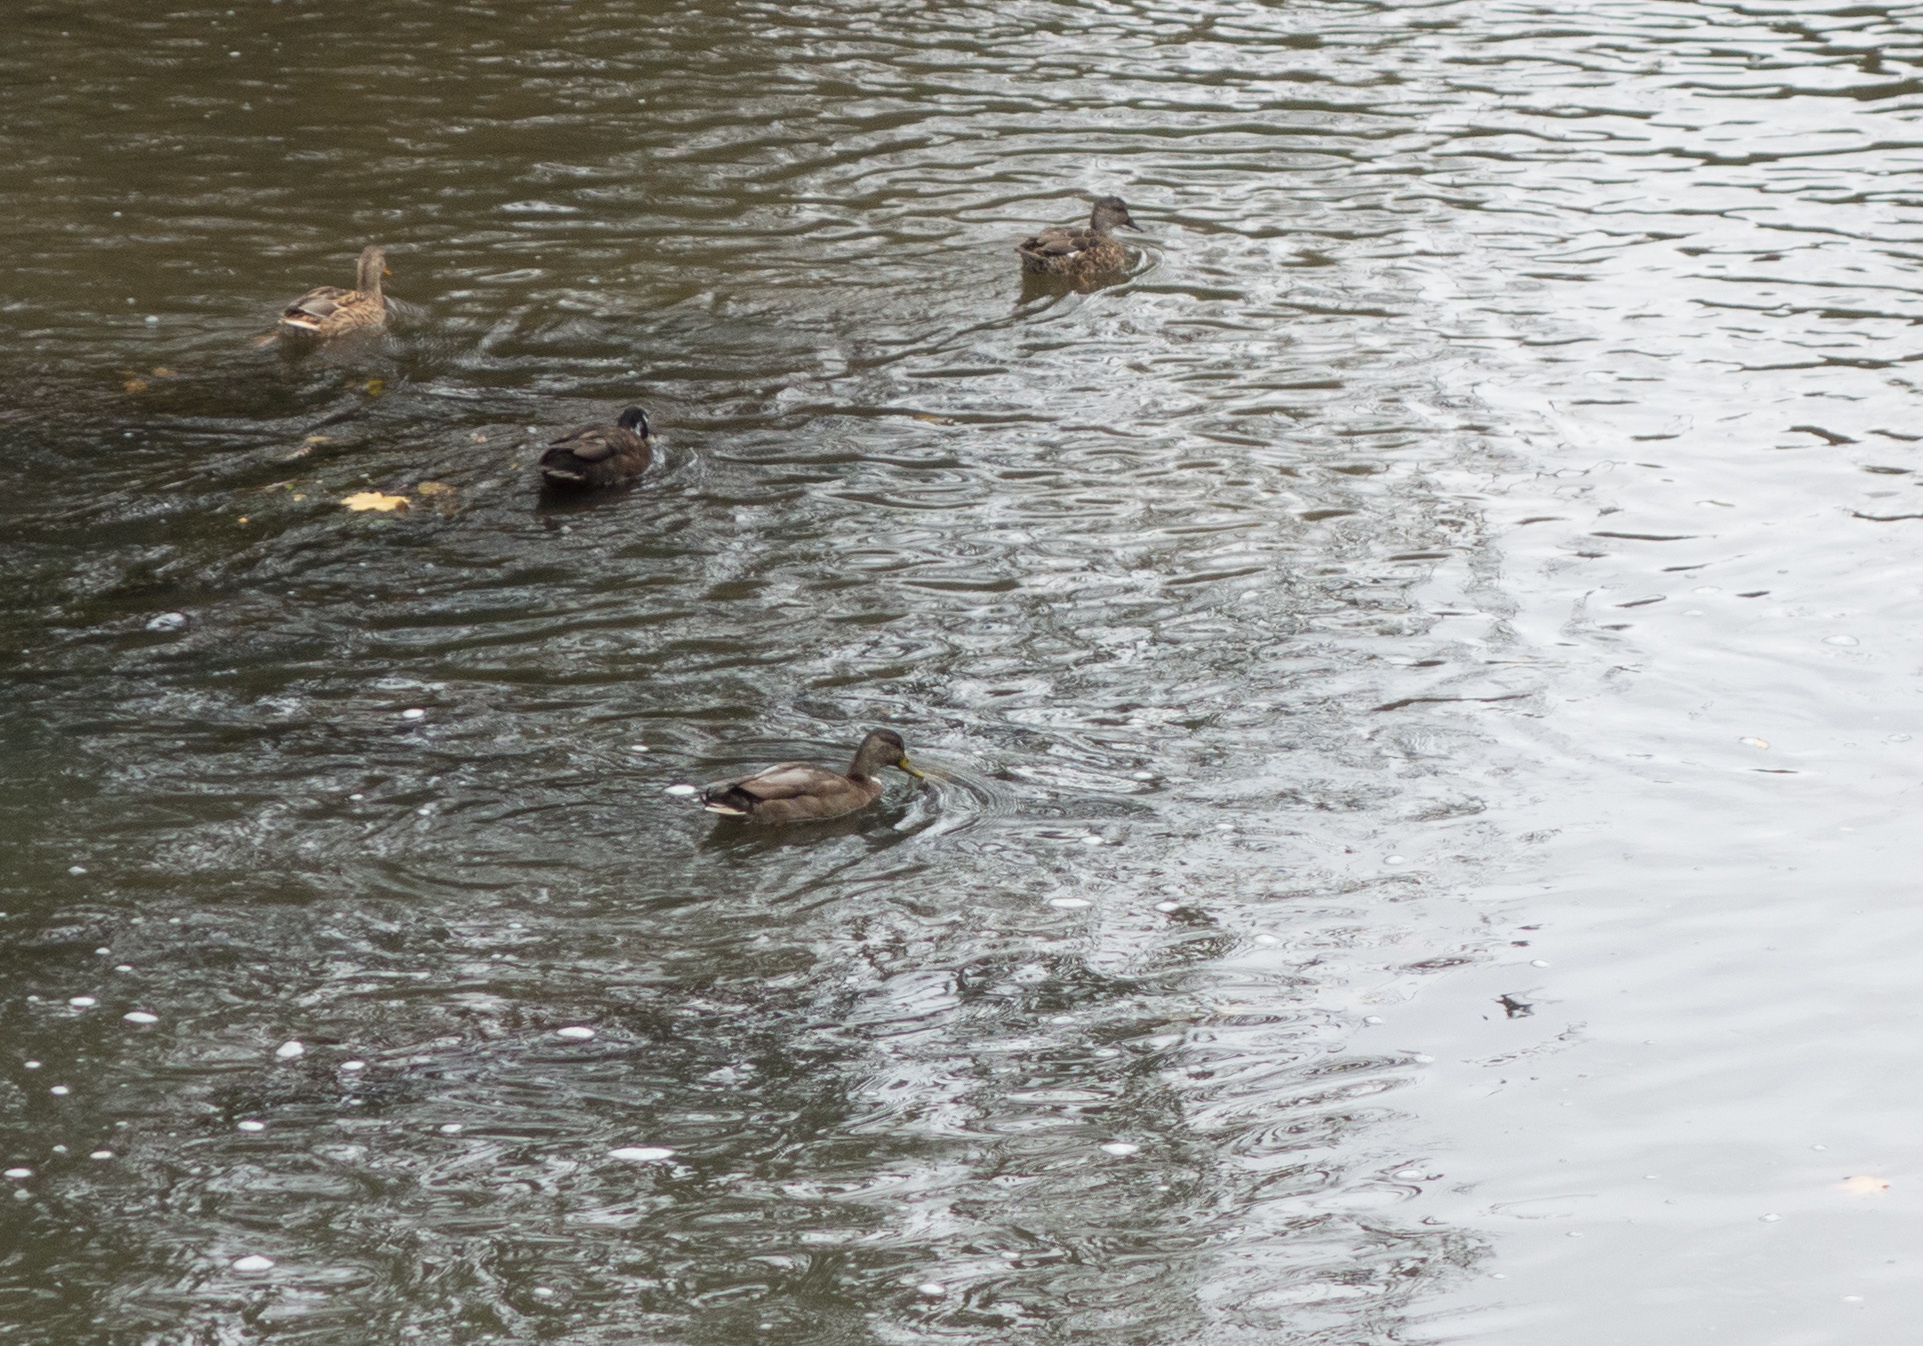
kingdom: Animalia
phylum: Chordata
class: Aves
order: Anseriformes
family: Anatidae
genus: Mareca
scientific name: Mareca strepera
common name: Gadwall
